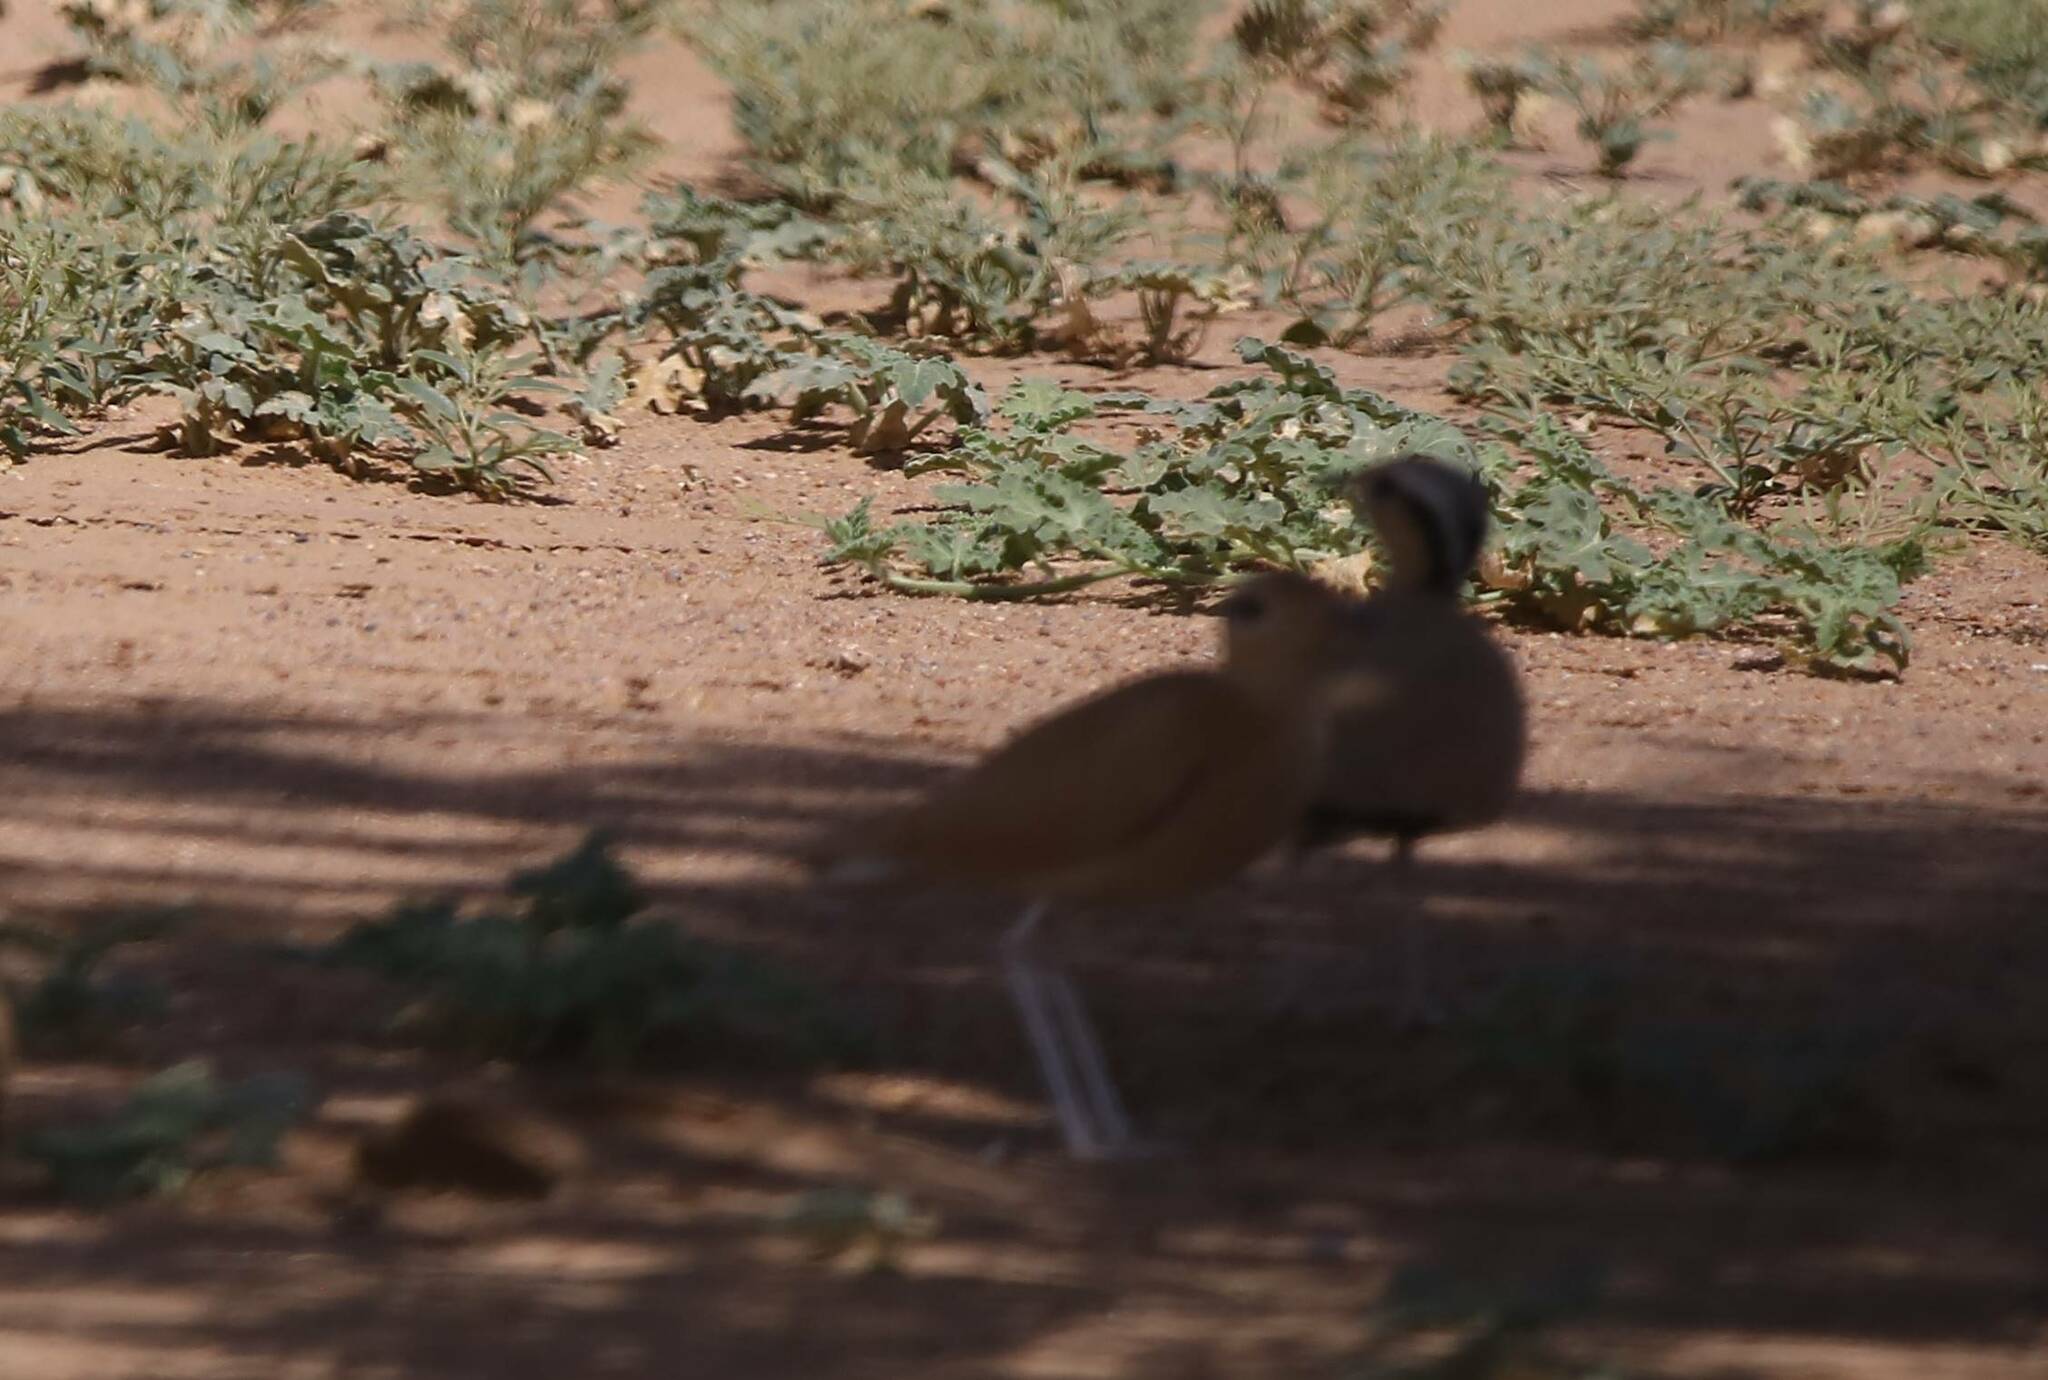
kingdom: Animalia
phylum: Chordata
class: Aves
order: Charadriiformes
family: Glareolidae
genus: Cursorius
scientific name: Cursorius cursor
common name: Cream-colored courser
